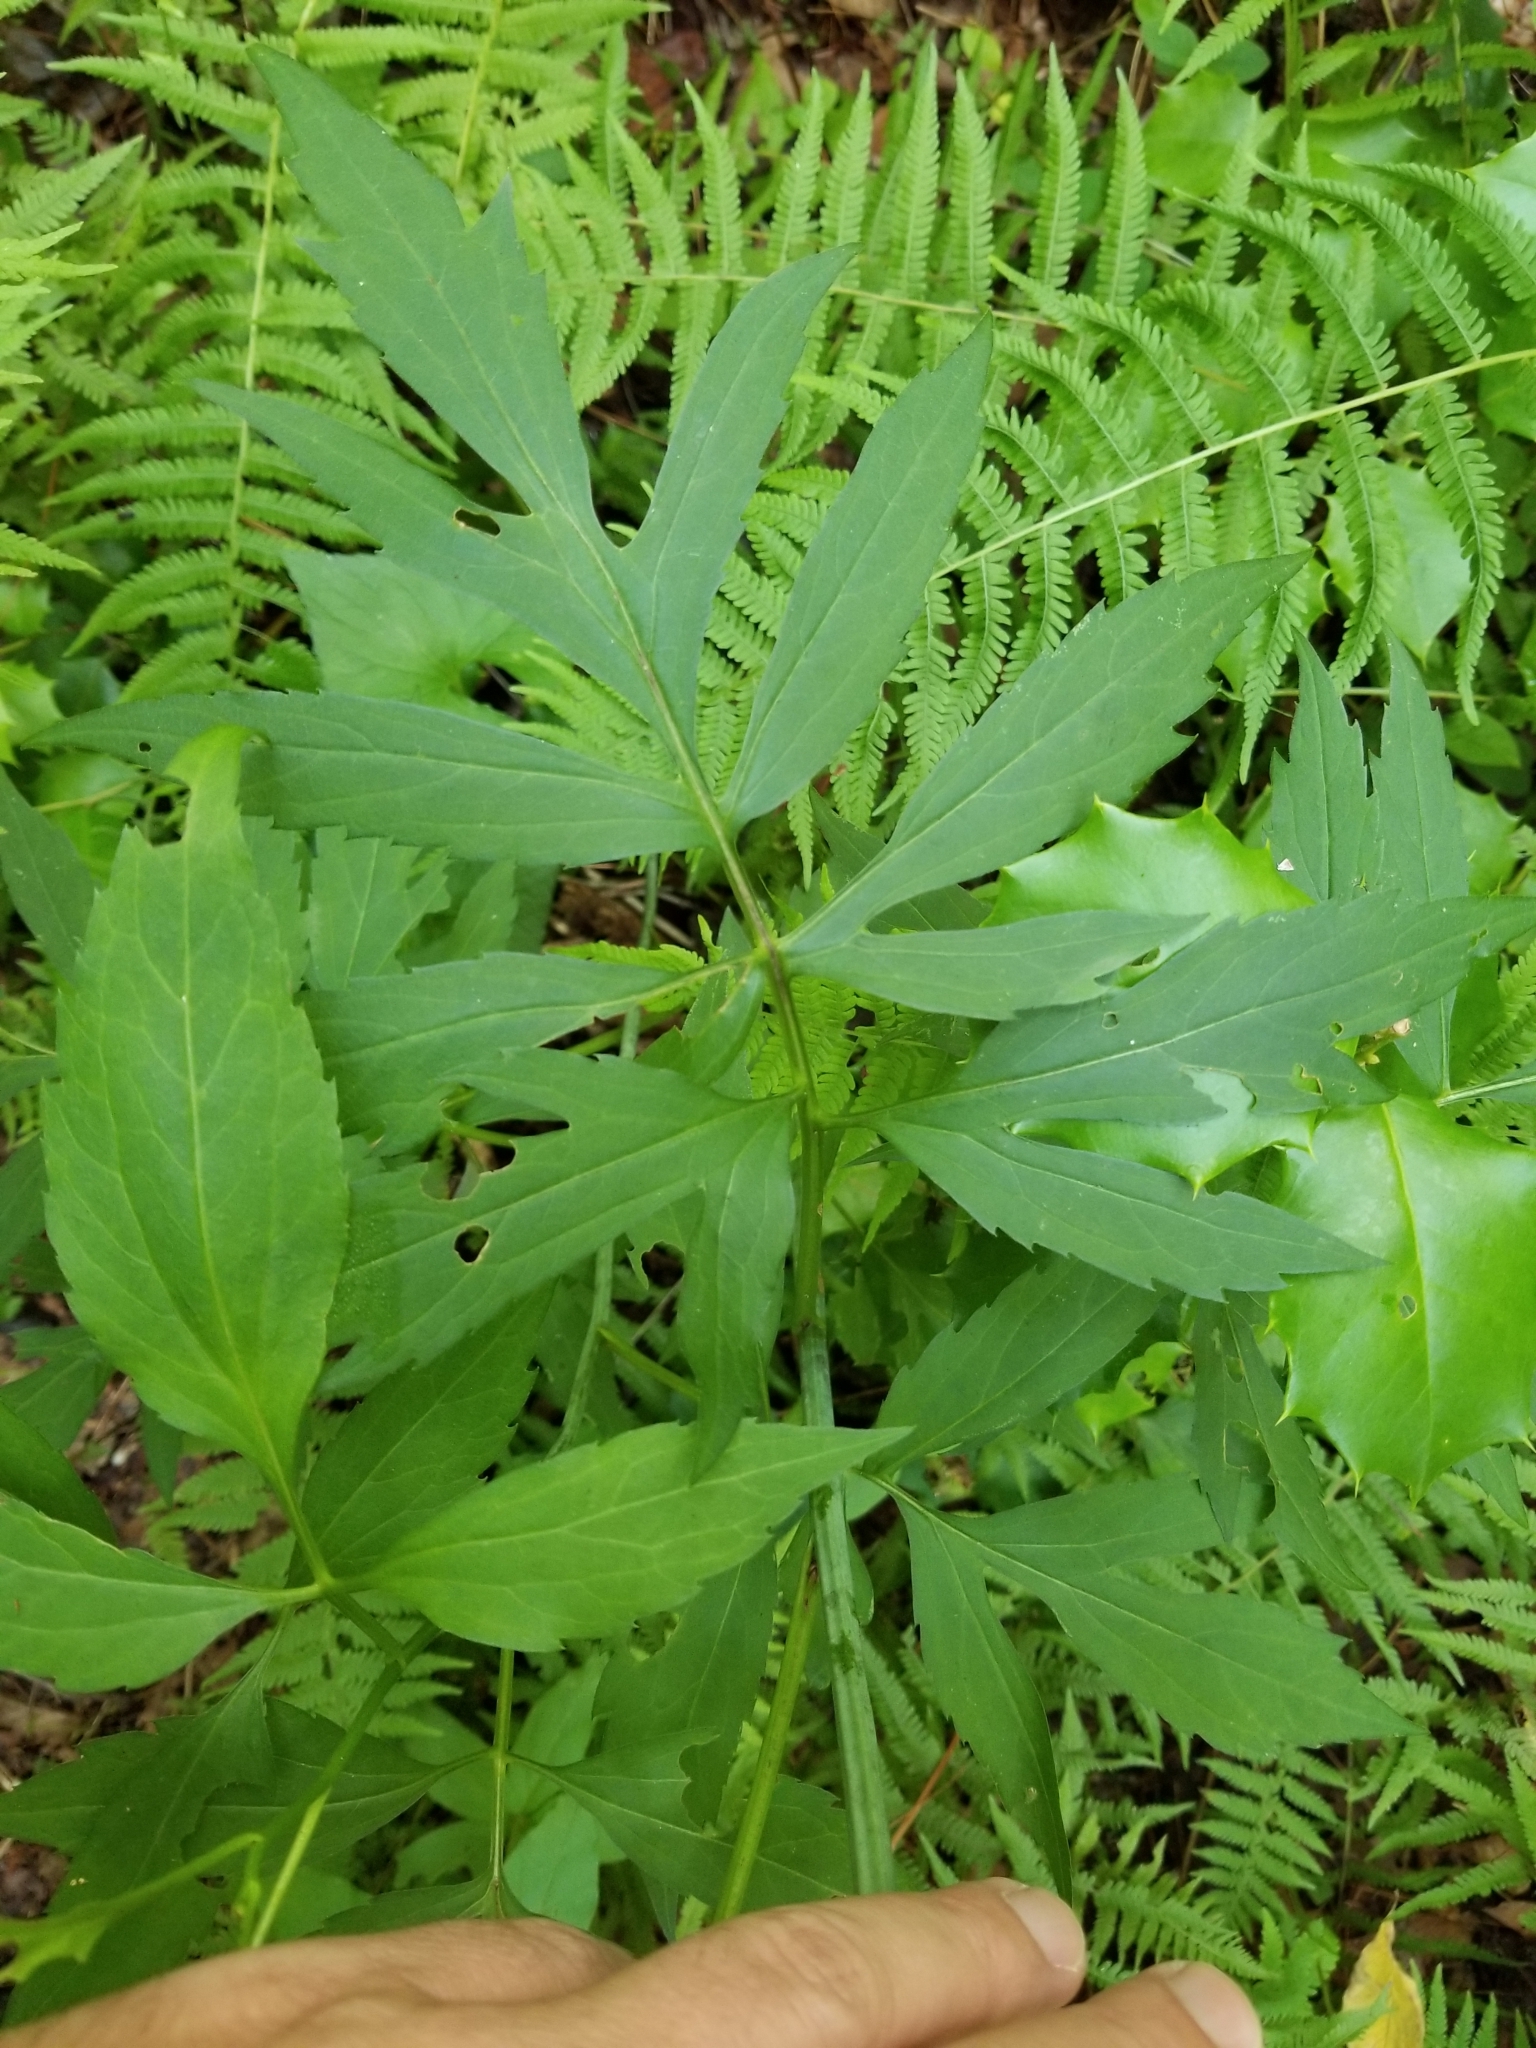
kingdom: Plantae
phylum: Tracheophyta
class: Magnoliopsida
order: Asterales
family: Asteraceae
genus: Rudbeckia
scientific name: Rudbeckia laciniata
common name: Coneflower
